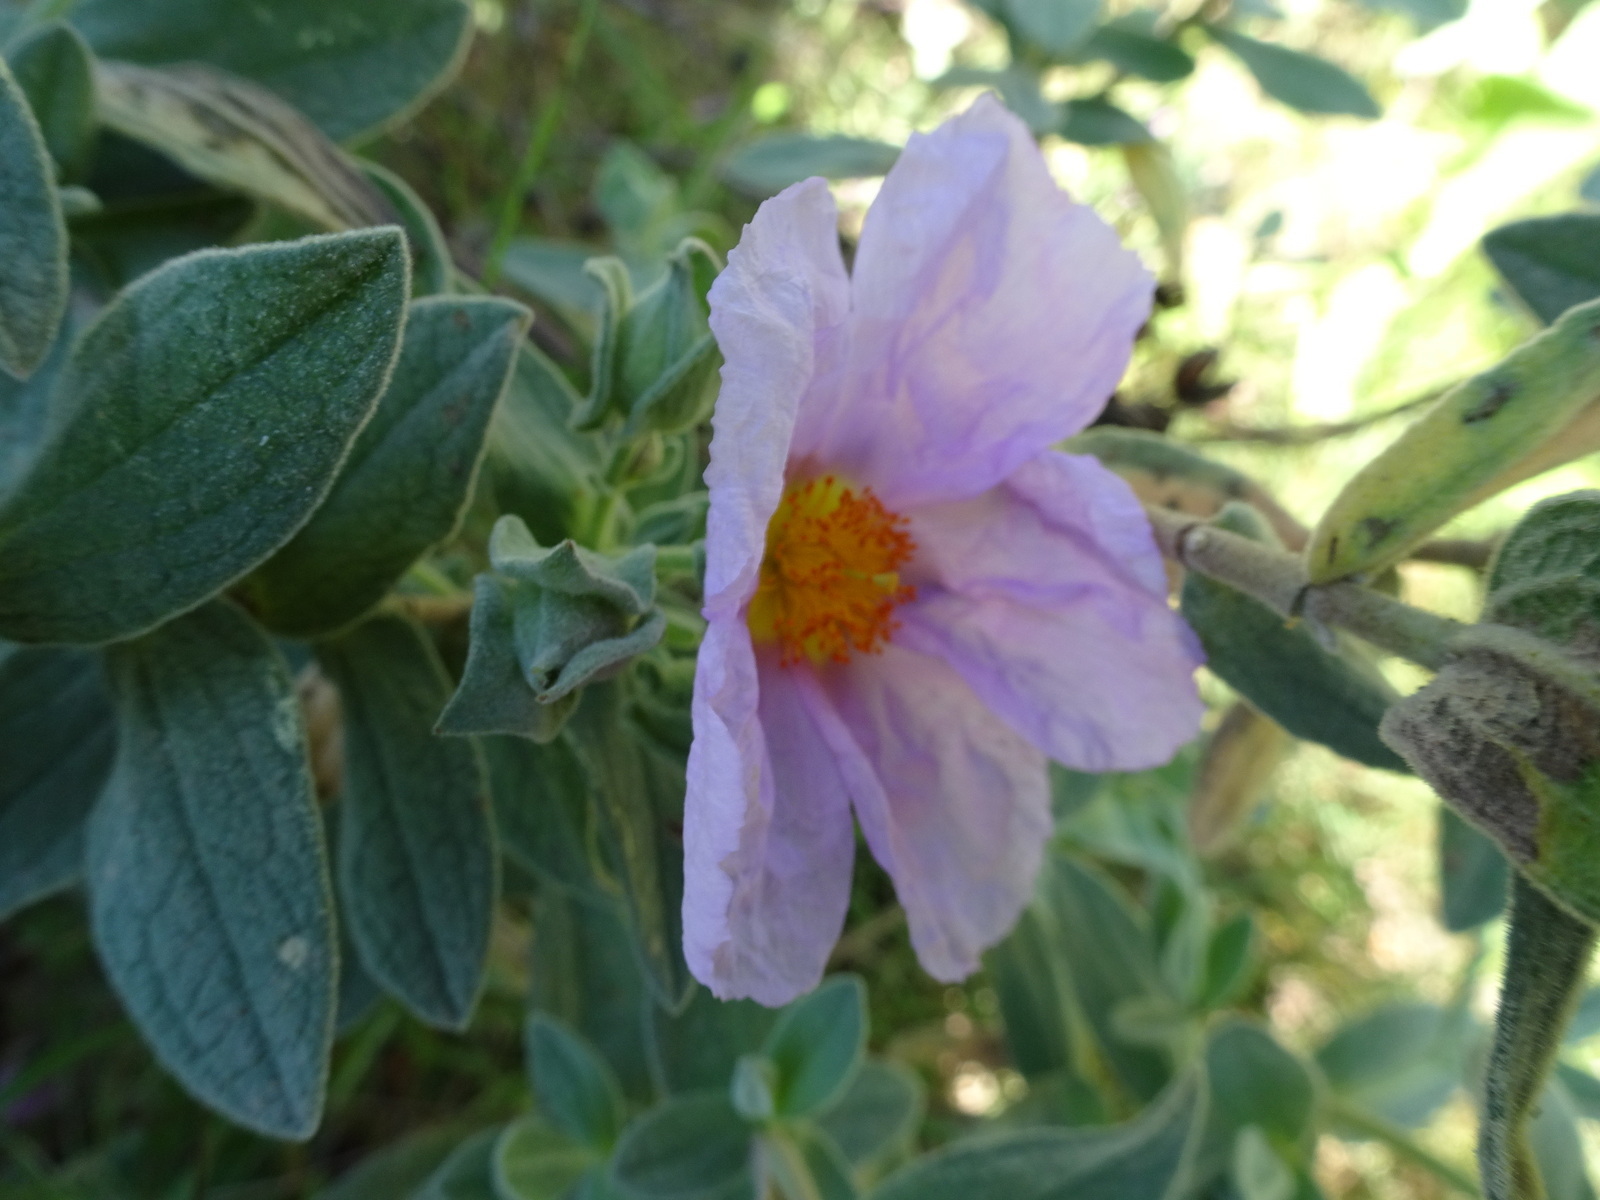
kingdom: Plantae
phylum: Tracheophyta
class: Magnoliopsida
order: Malvales
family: Cistaceae
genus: Cistus
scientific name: Cistus albidus
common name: White-leaf rock-rose
